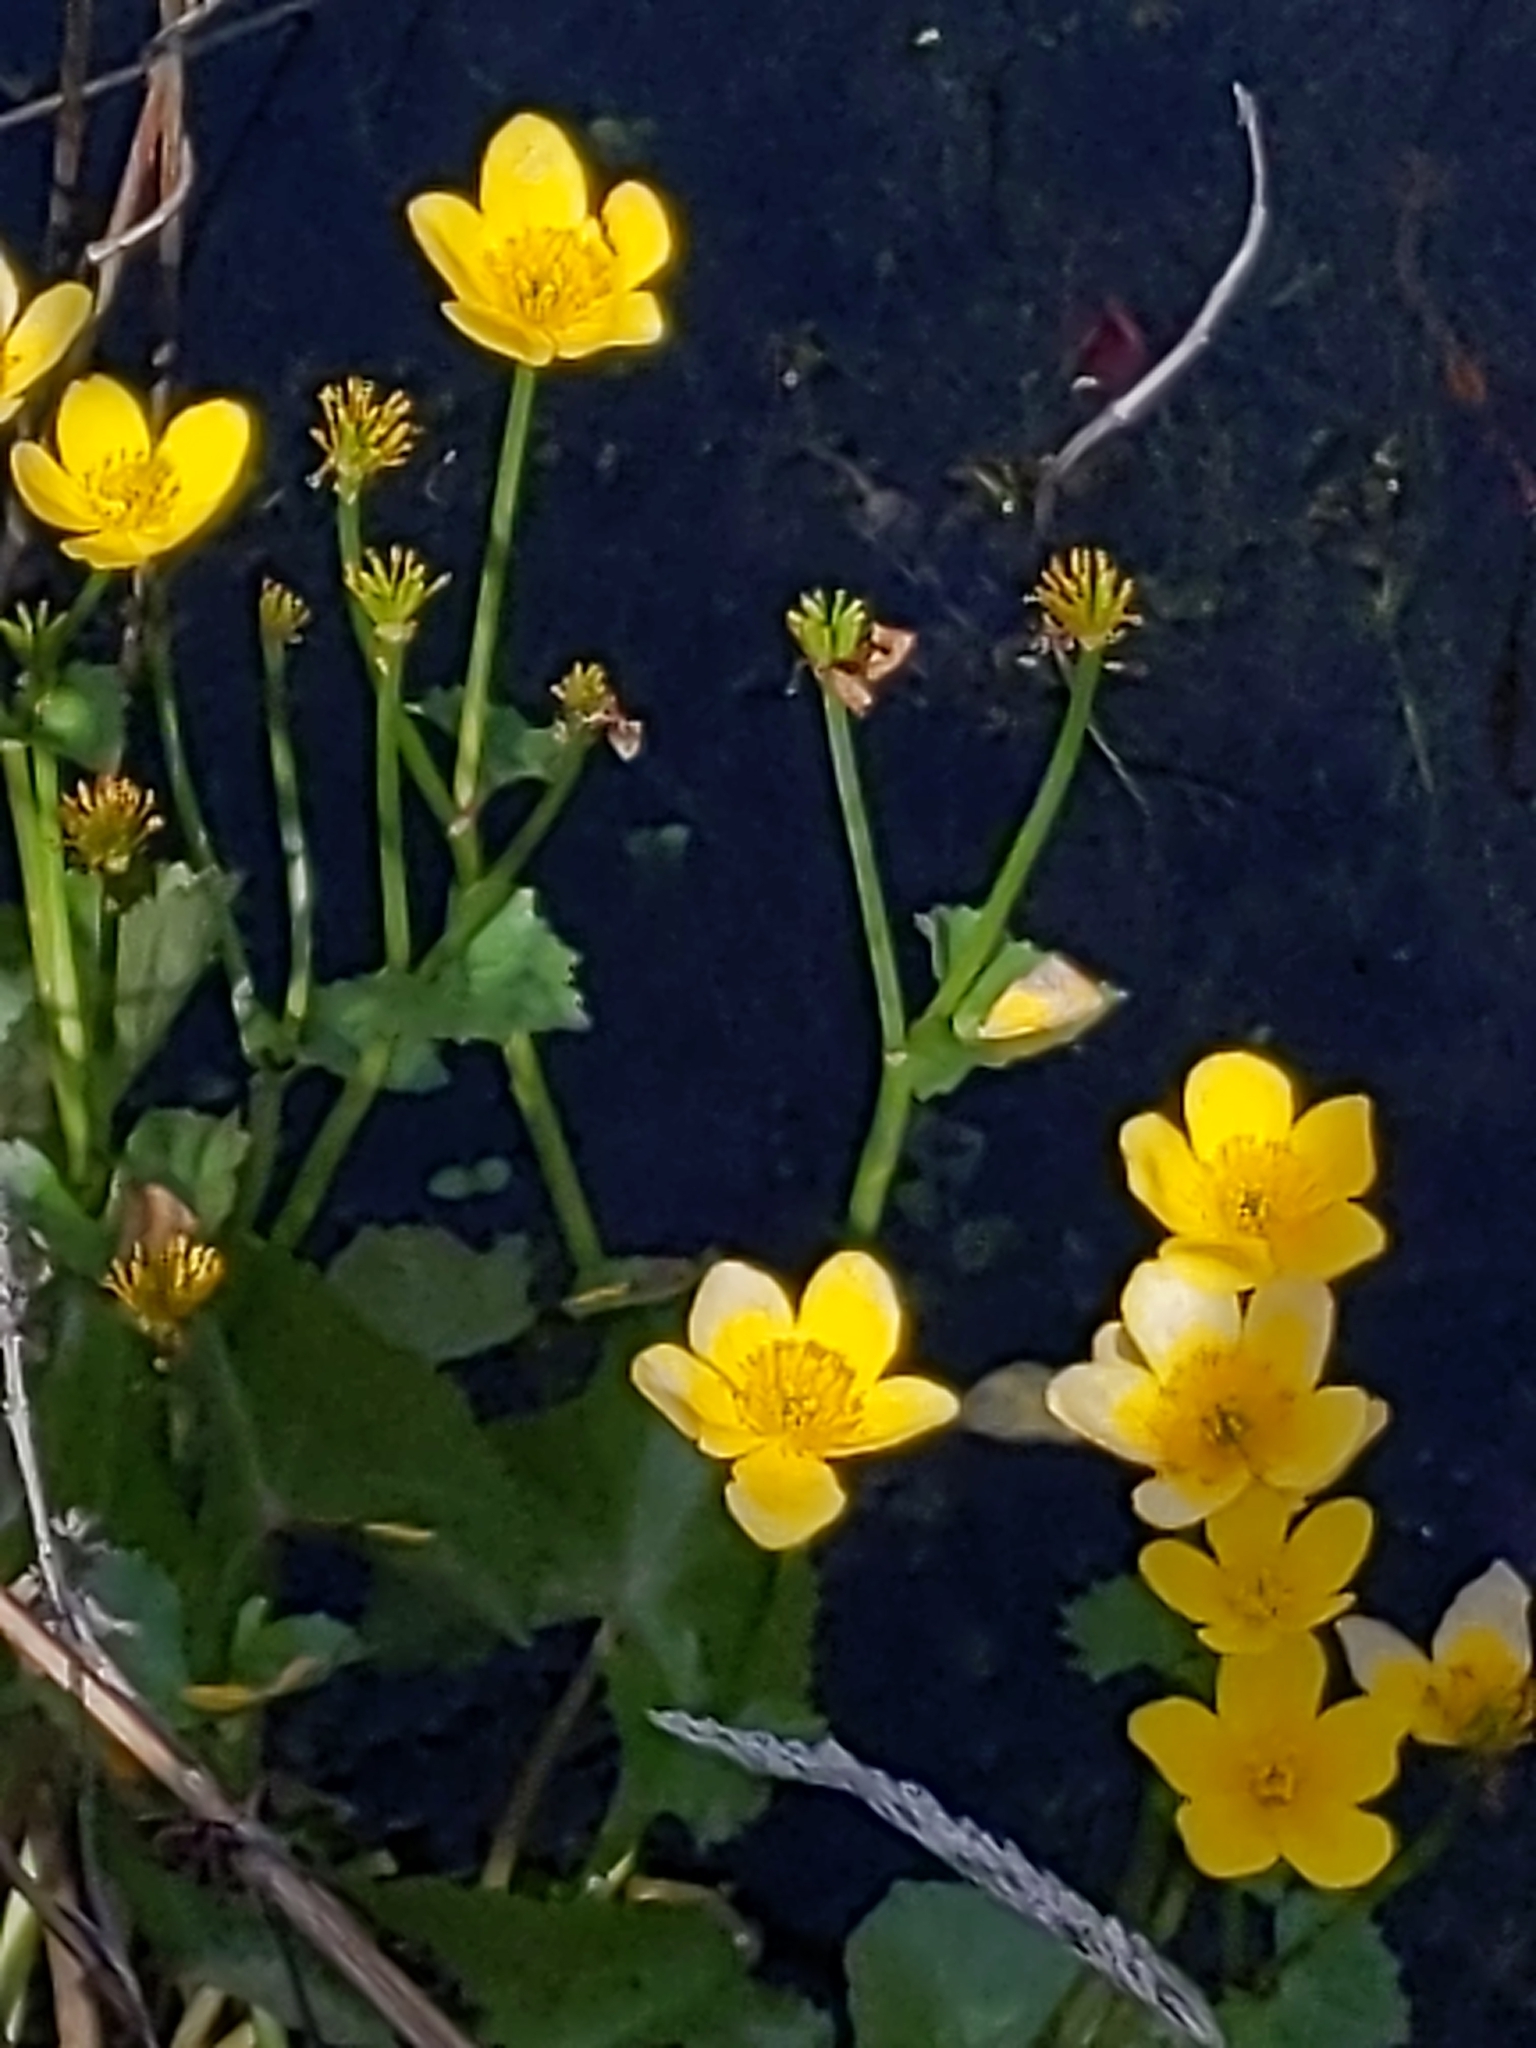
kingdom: Plantae
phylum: Tracheophyta
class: Magnoliopsida
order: Ranunculales
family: Ranunculaceae
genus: Caltha
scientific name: Caltha palustris
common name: Marsh marigold
